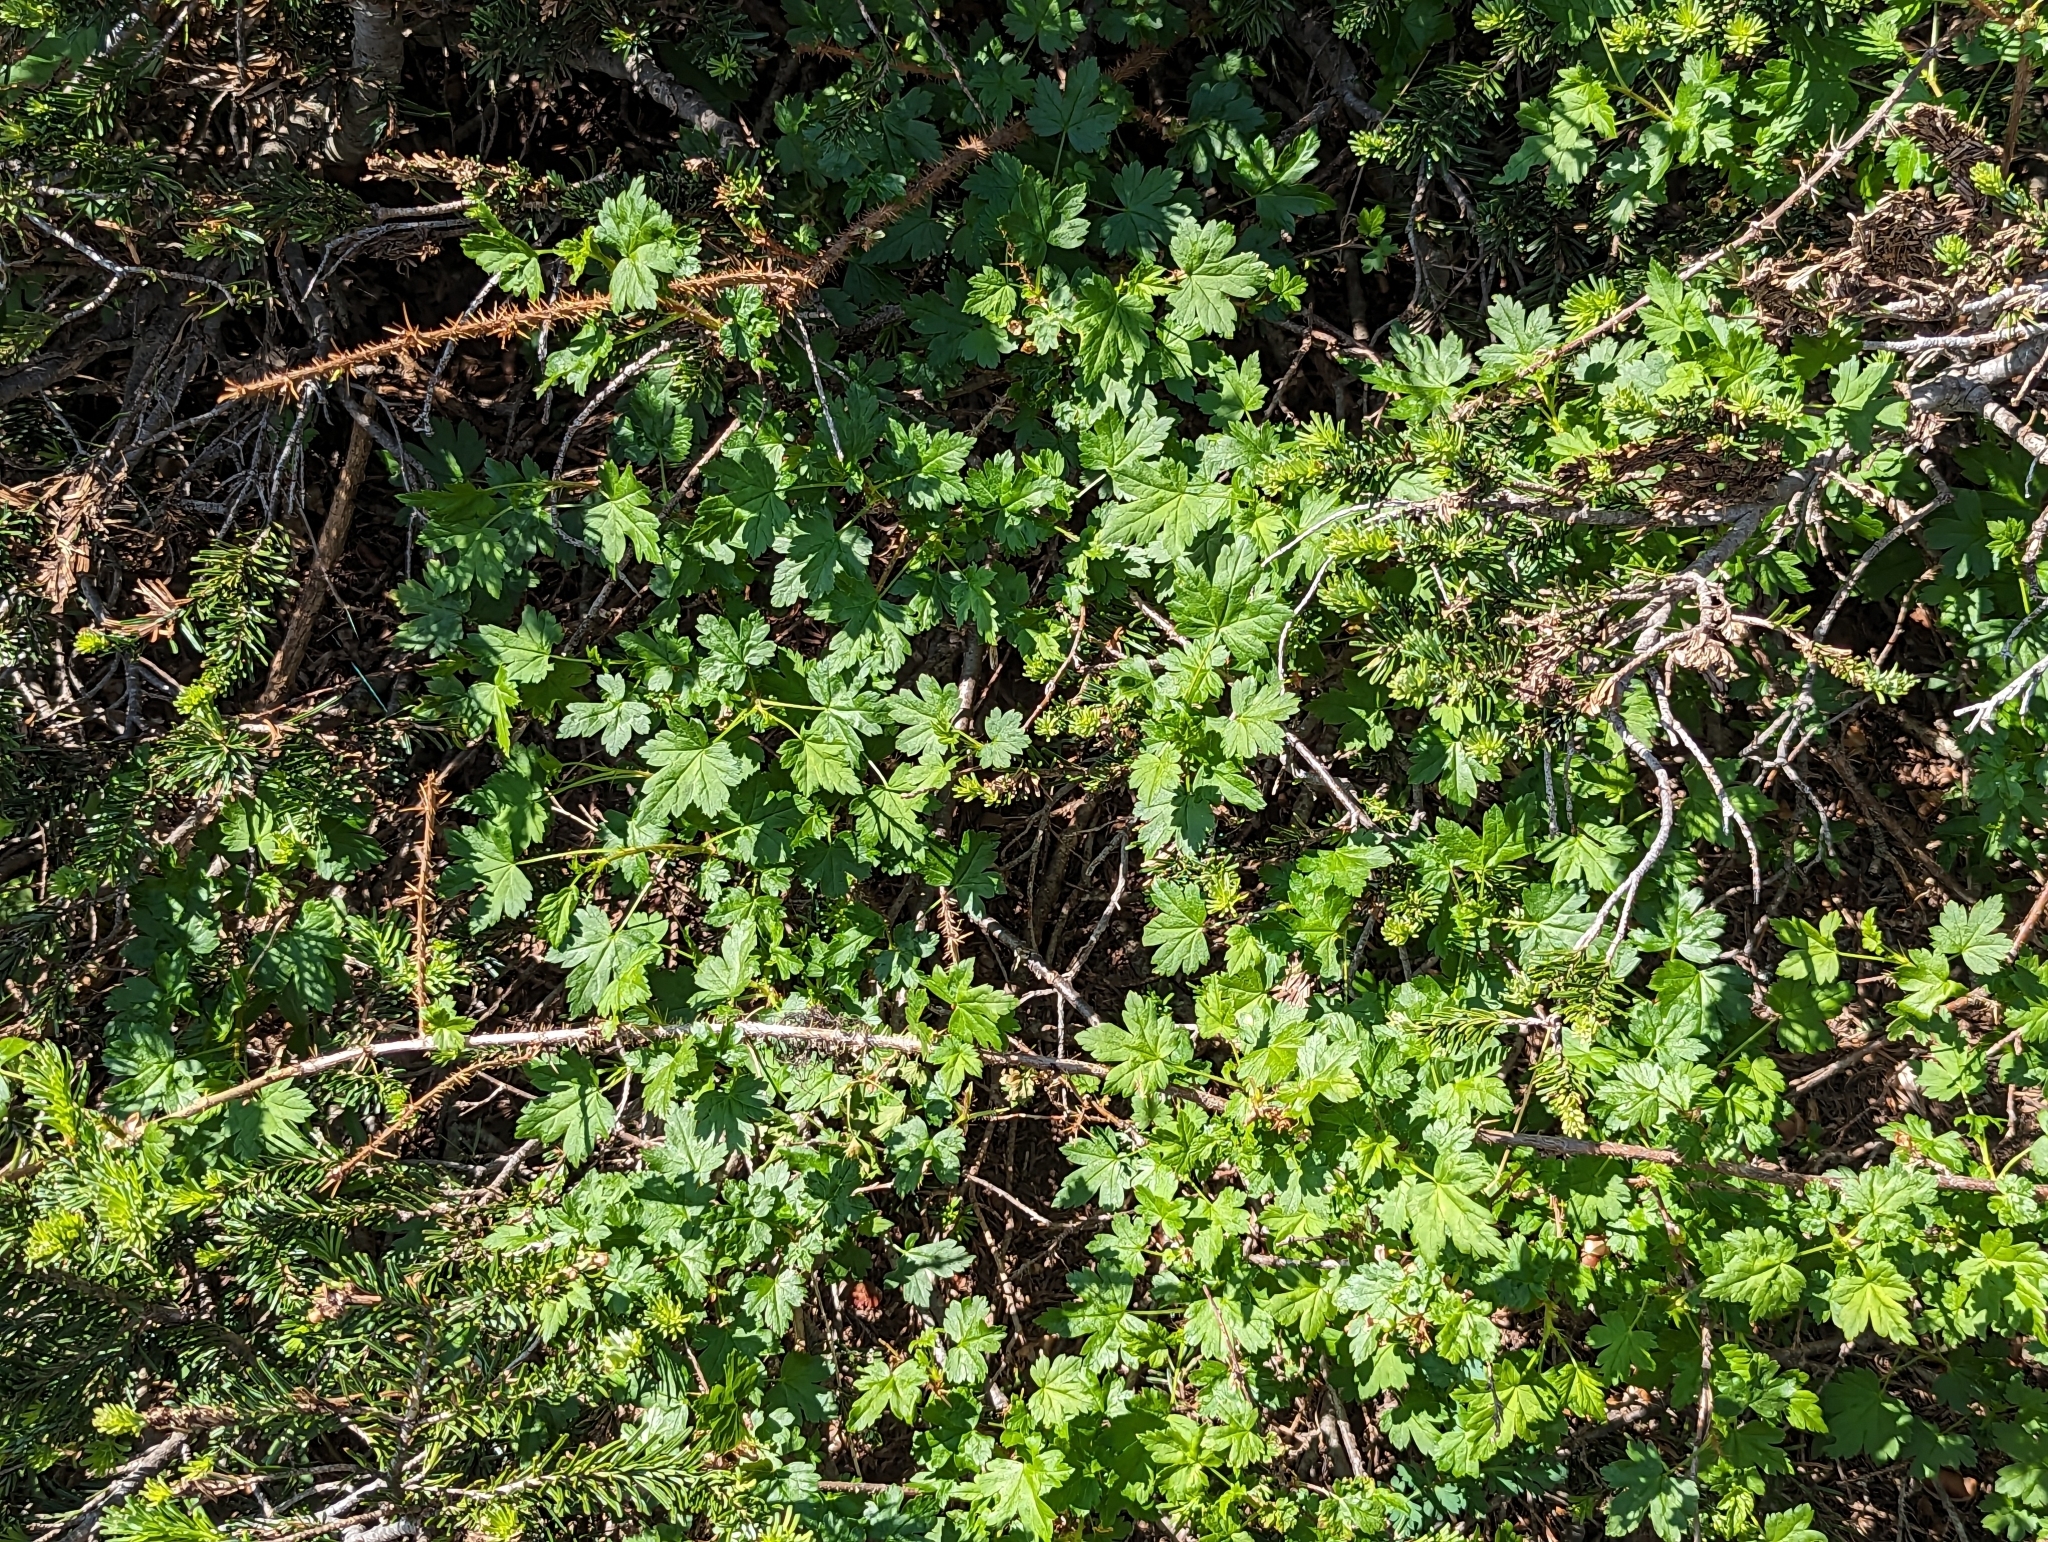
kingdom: Plantae
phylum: Tracheophyta
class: Magnoliopsida
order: Saxifragales
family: Grossulariaceae
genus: Ribes
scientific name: Ribes lacustre
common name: Black gooseberry
